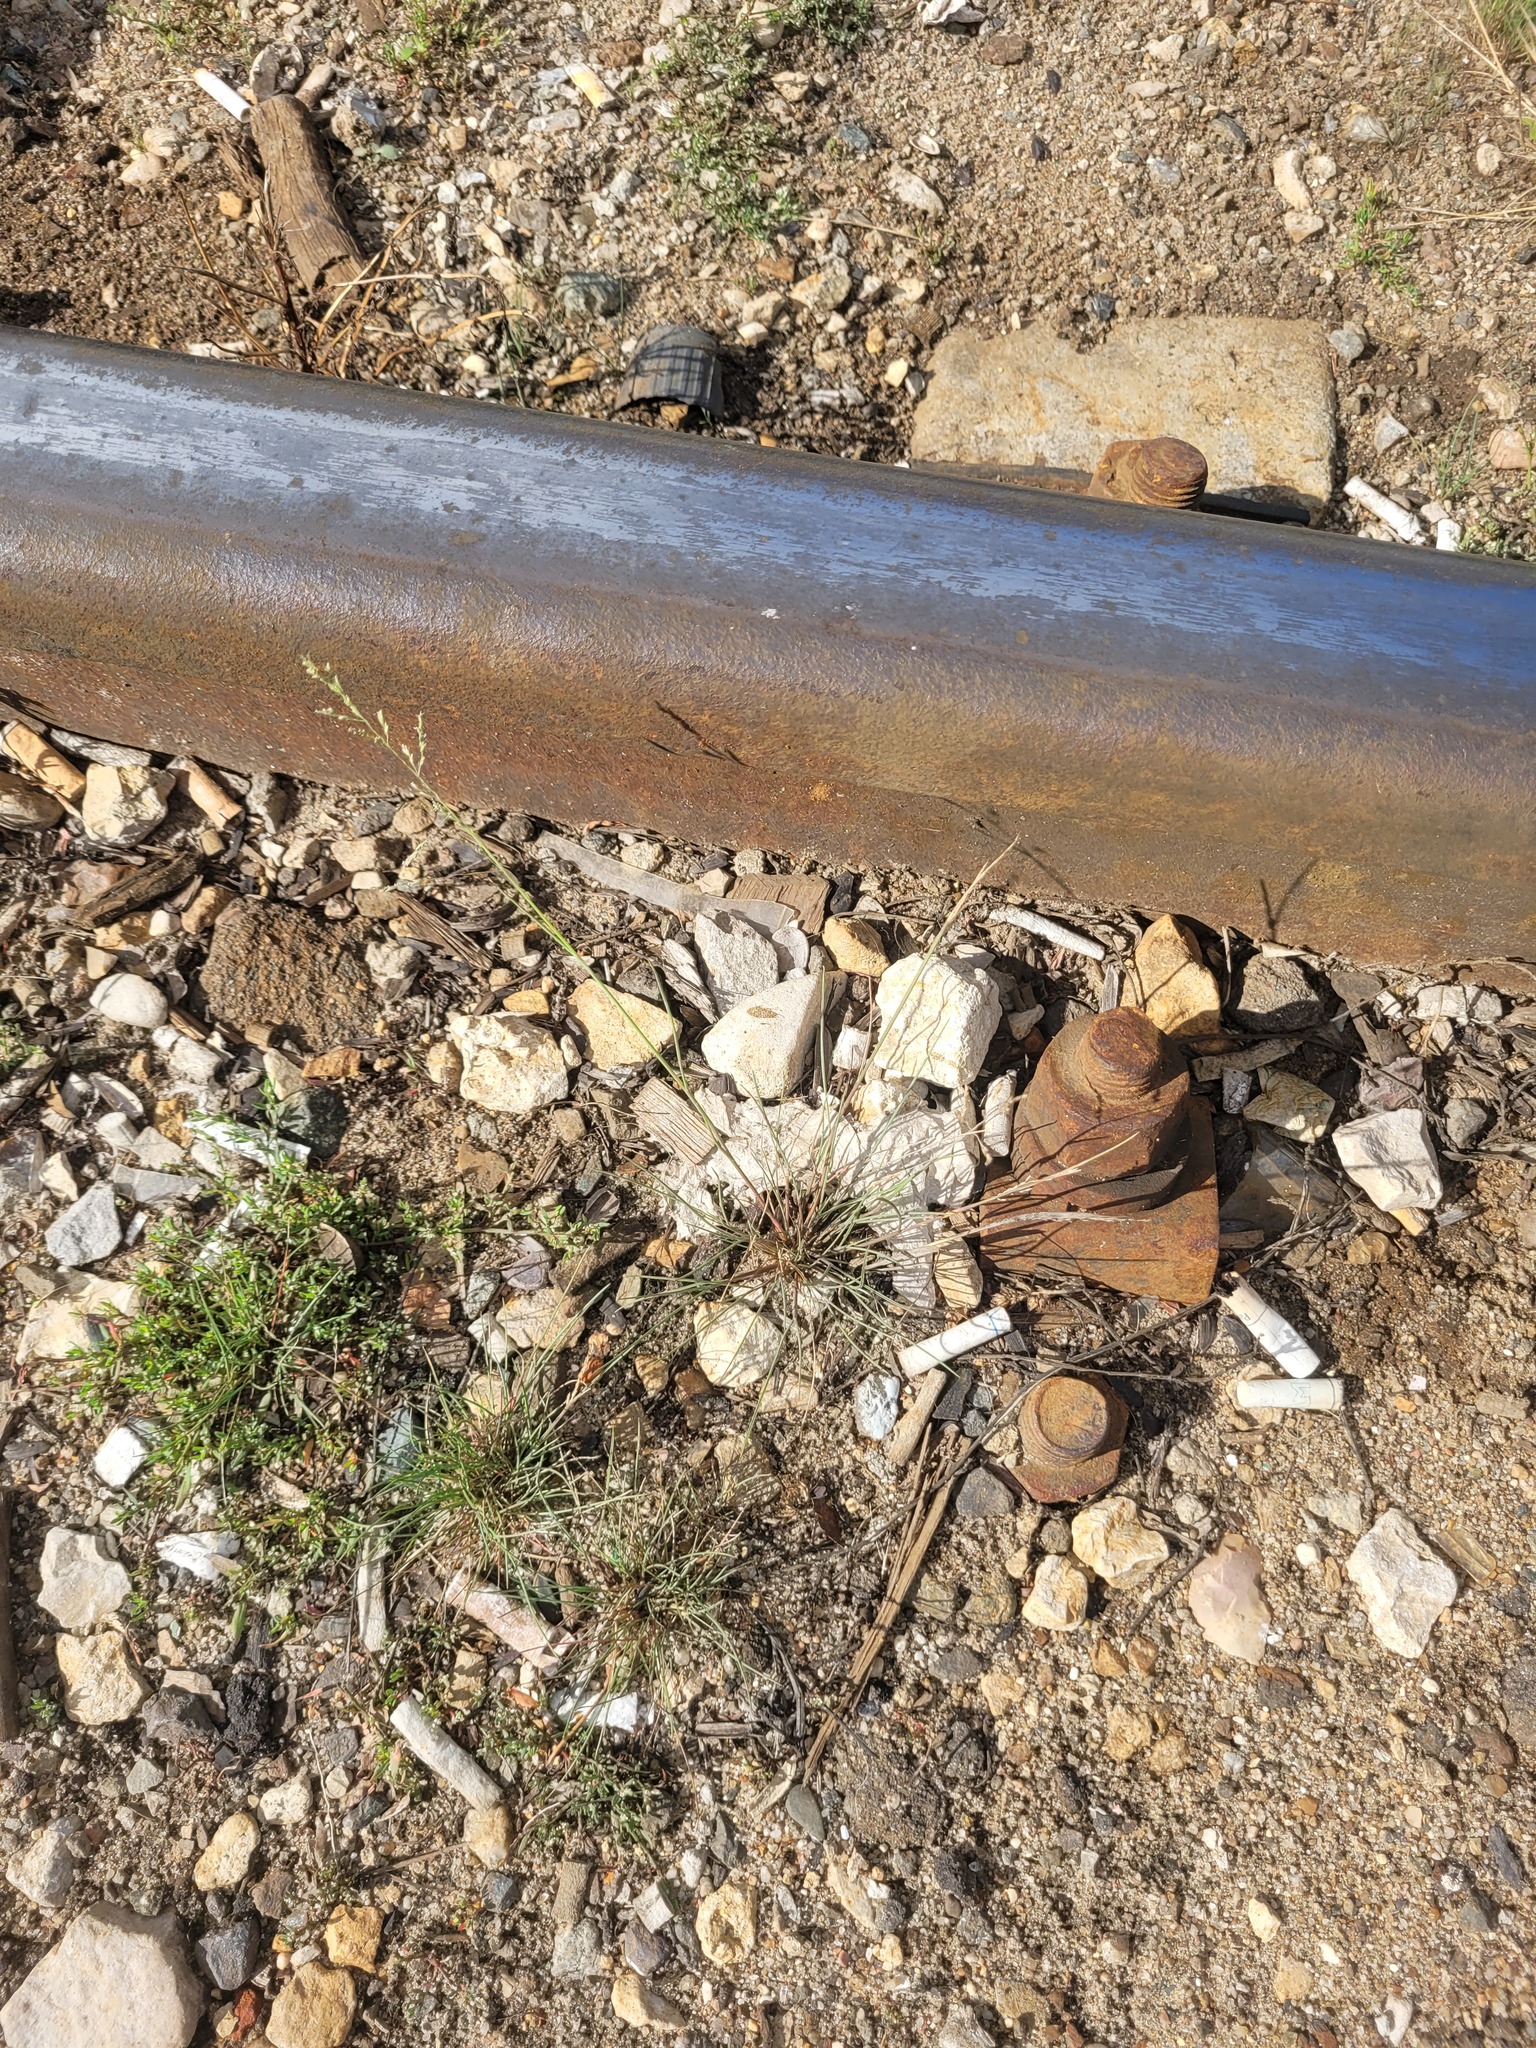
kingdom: Plantae
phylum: Tracheophyta
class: Liliopsida
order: Poales
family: Poaceae
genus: Puccinellia
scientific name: Puccinellia distans
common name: Weeping alkaligrass
